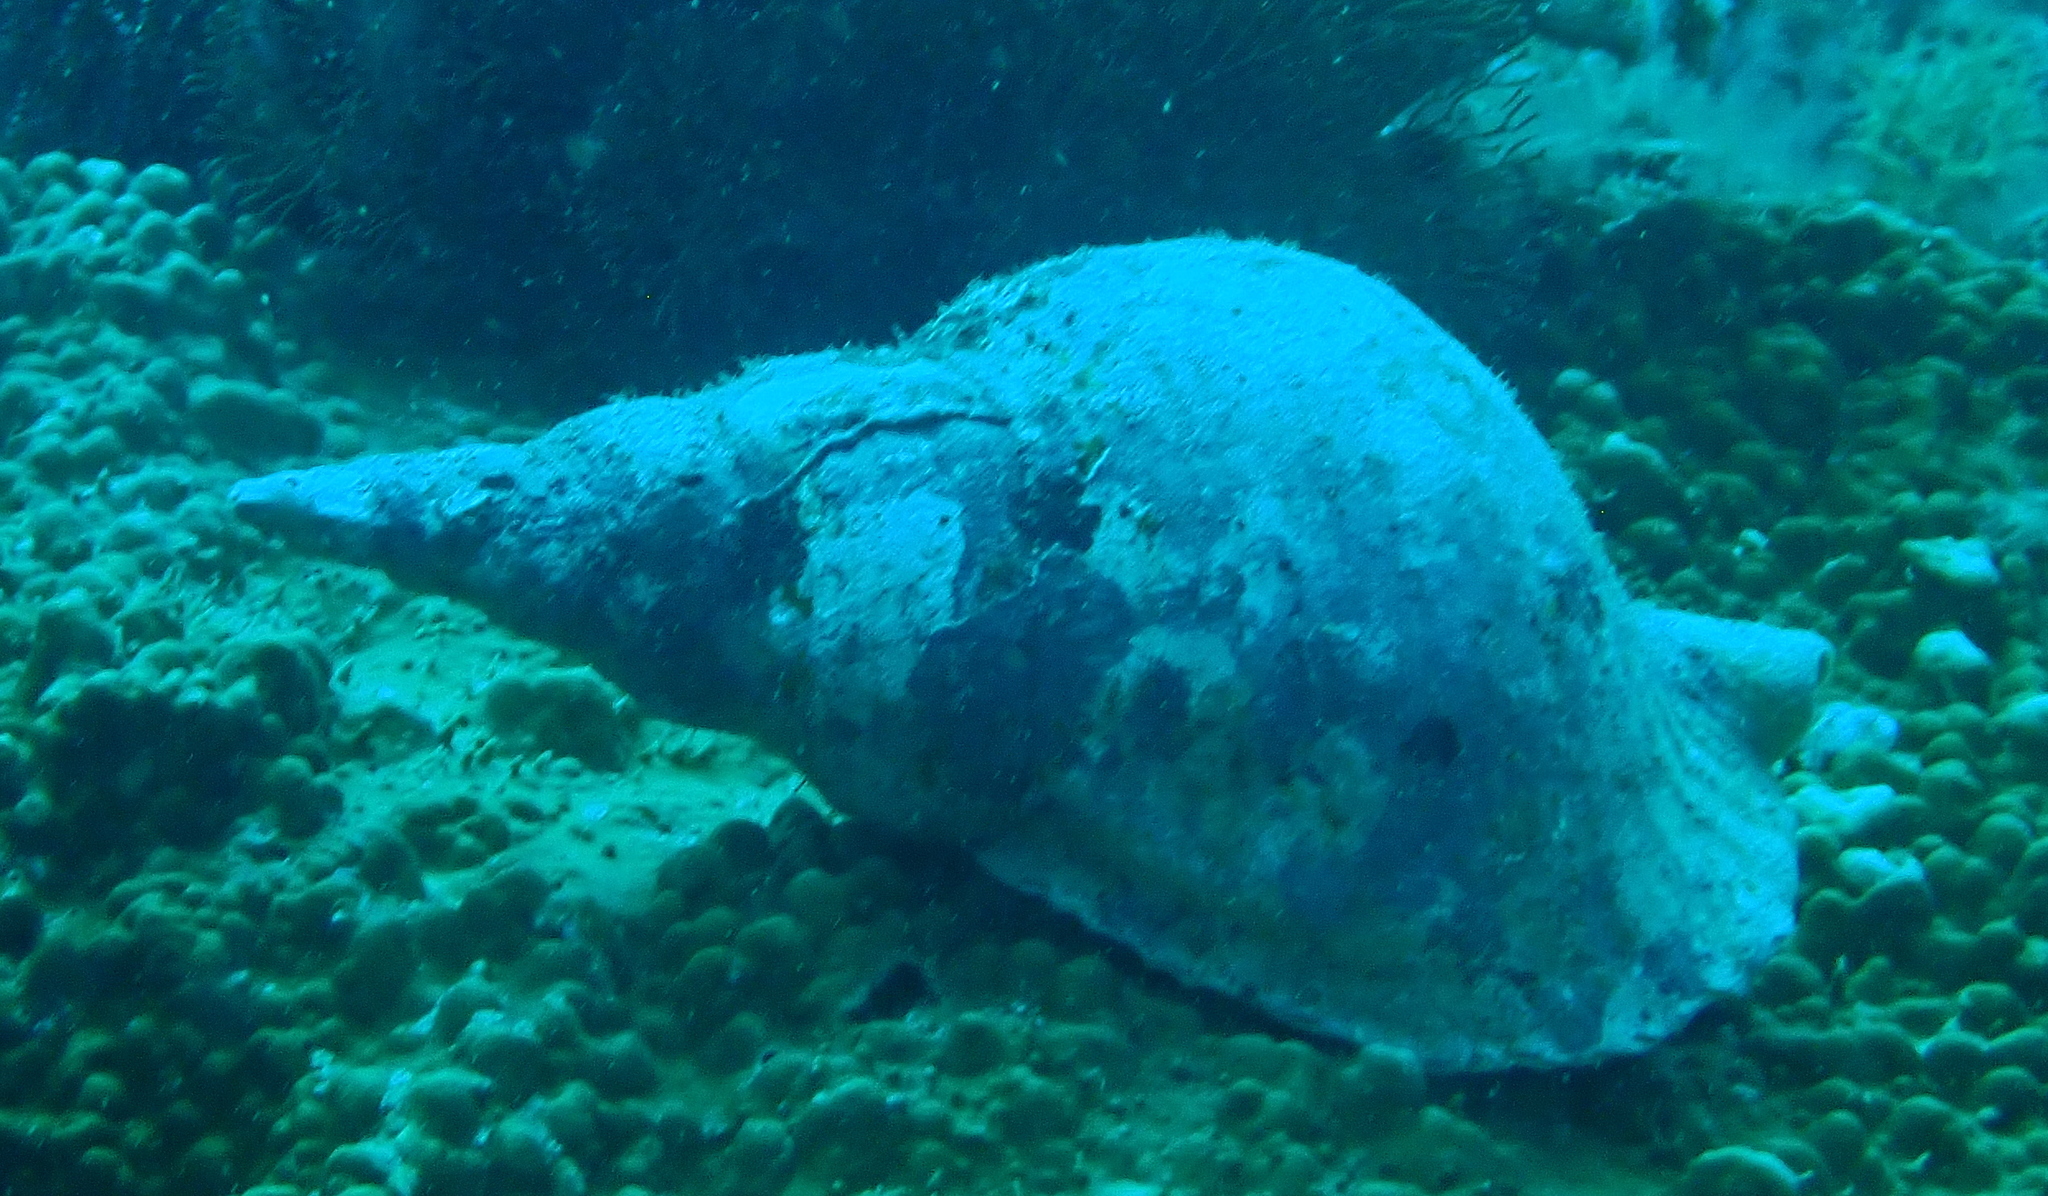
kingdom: Animalia
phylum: Mollusca
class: Gastropoda
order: Littorinimorpha
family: Charoniidae
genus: Charonia
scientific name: Charonia tritonis
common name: Pacific triton
